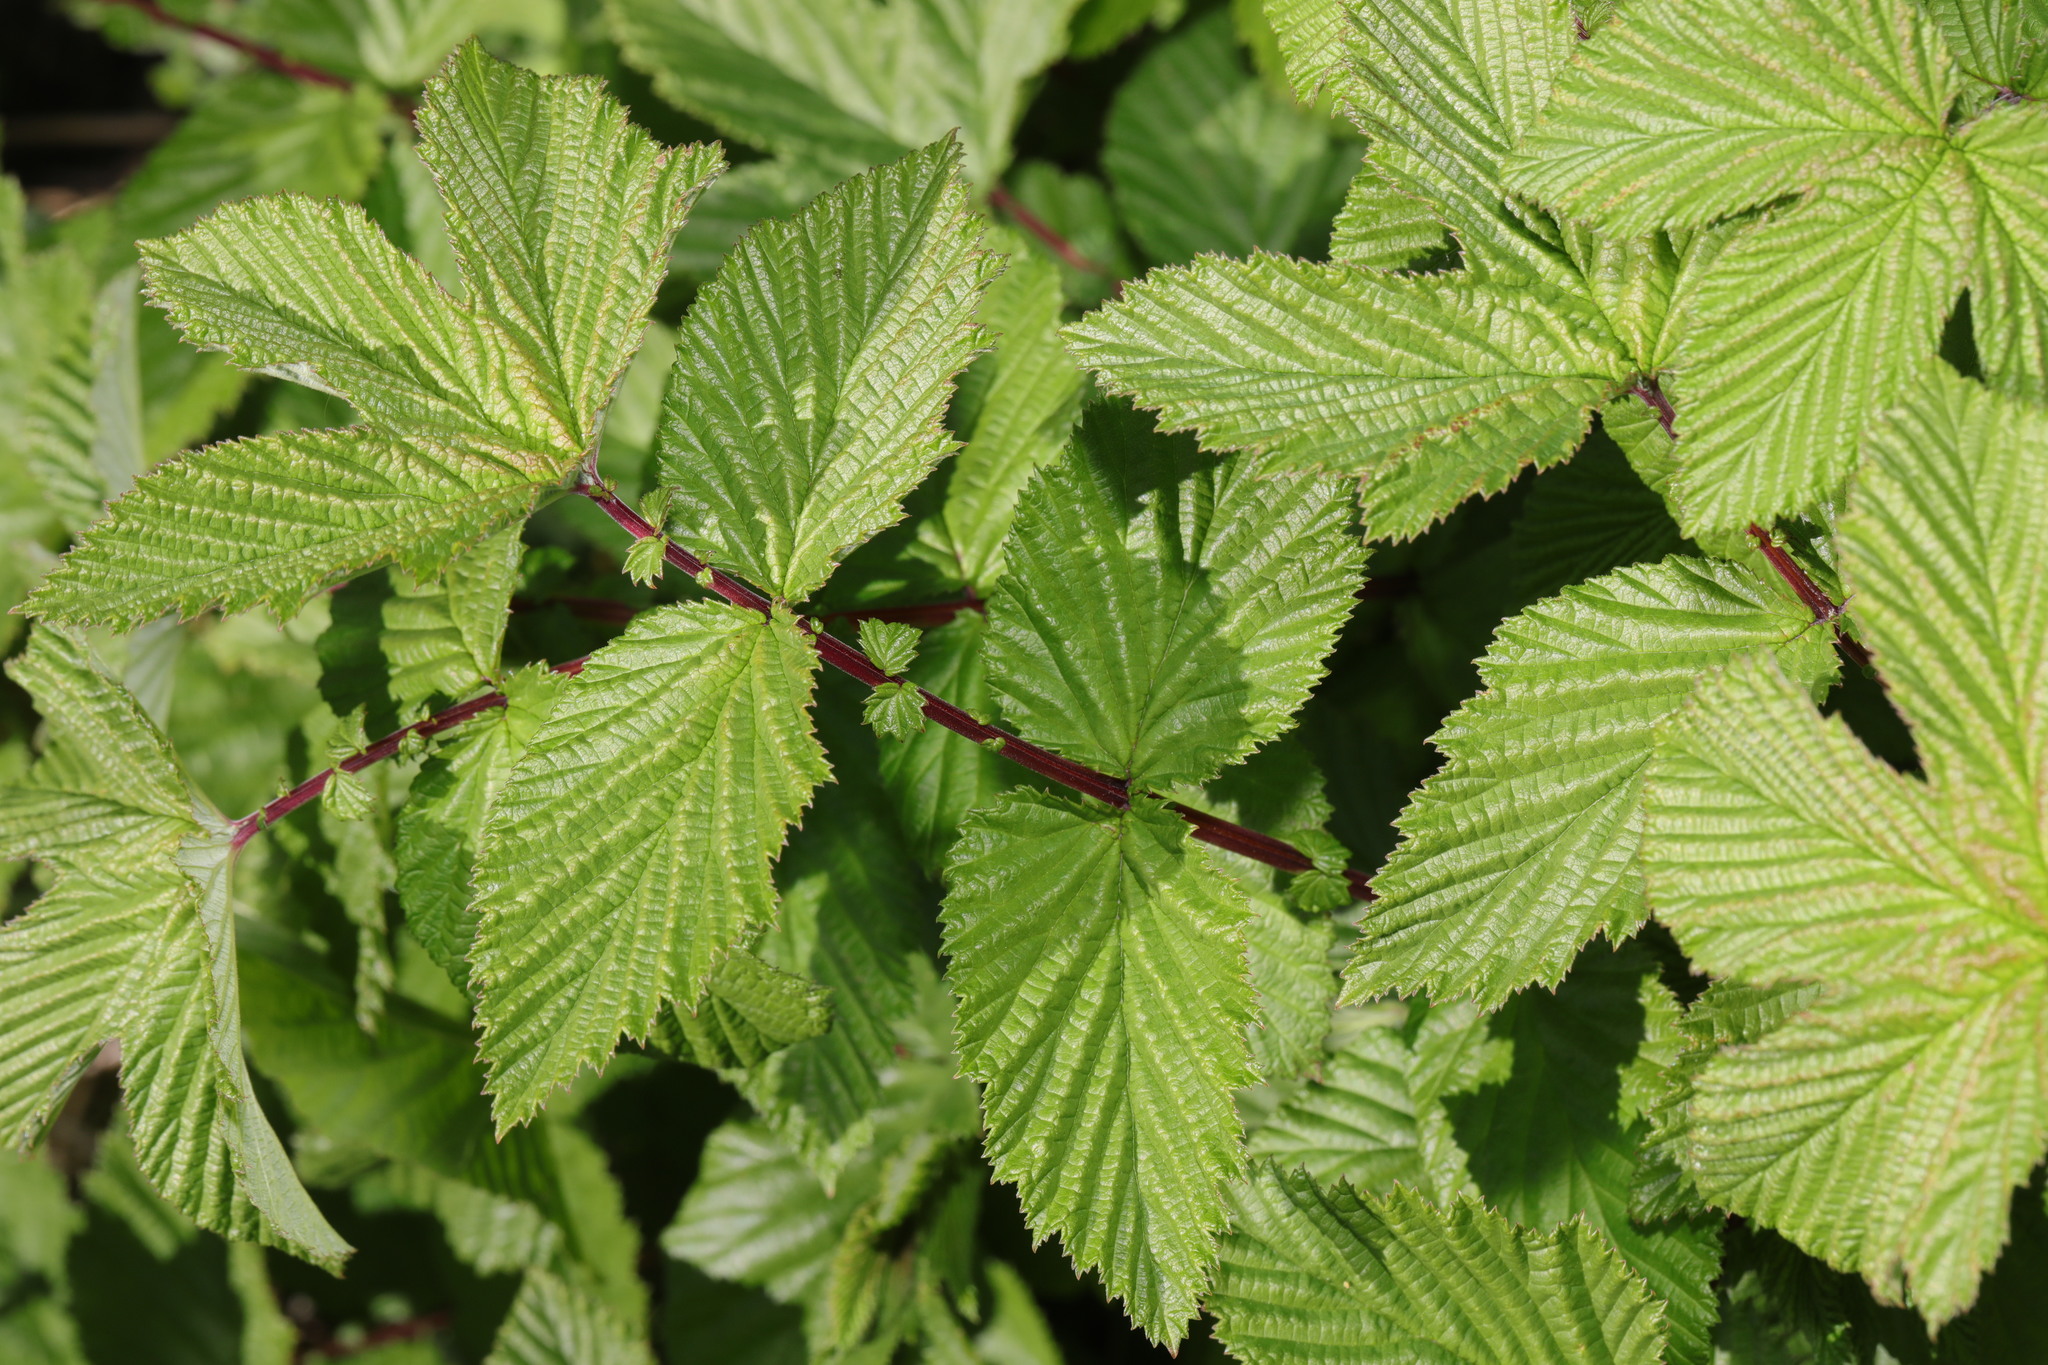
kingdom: Plantae
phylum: Tracheophyta
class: Magnoliopsida
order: Rosales
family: Rosaceae
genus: Filipendula
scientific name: Filipendula ulmaria
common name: Meadowsweet
